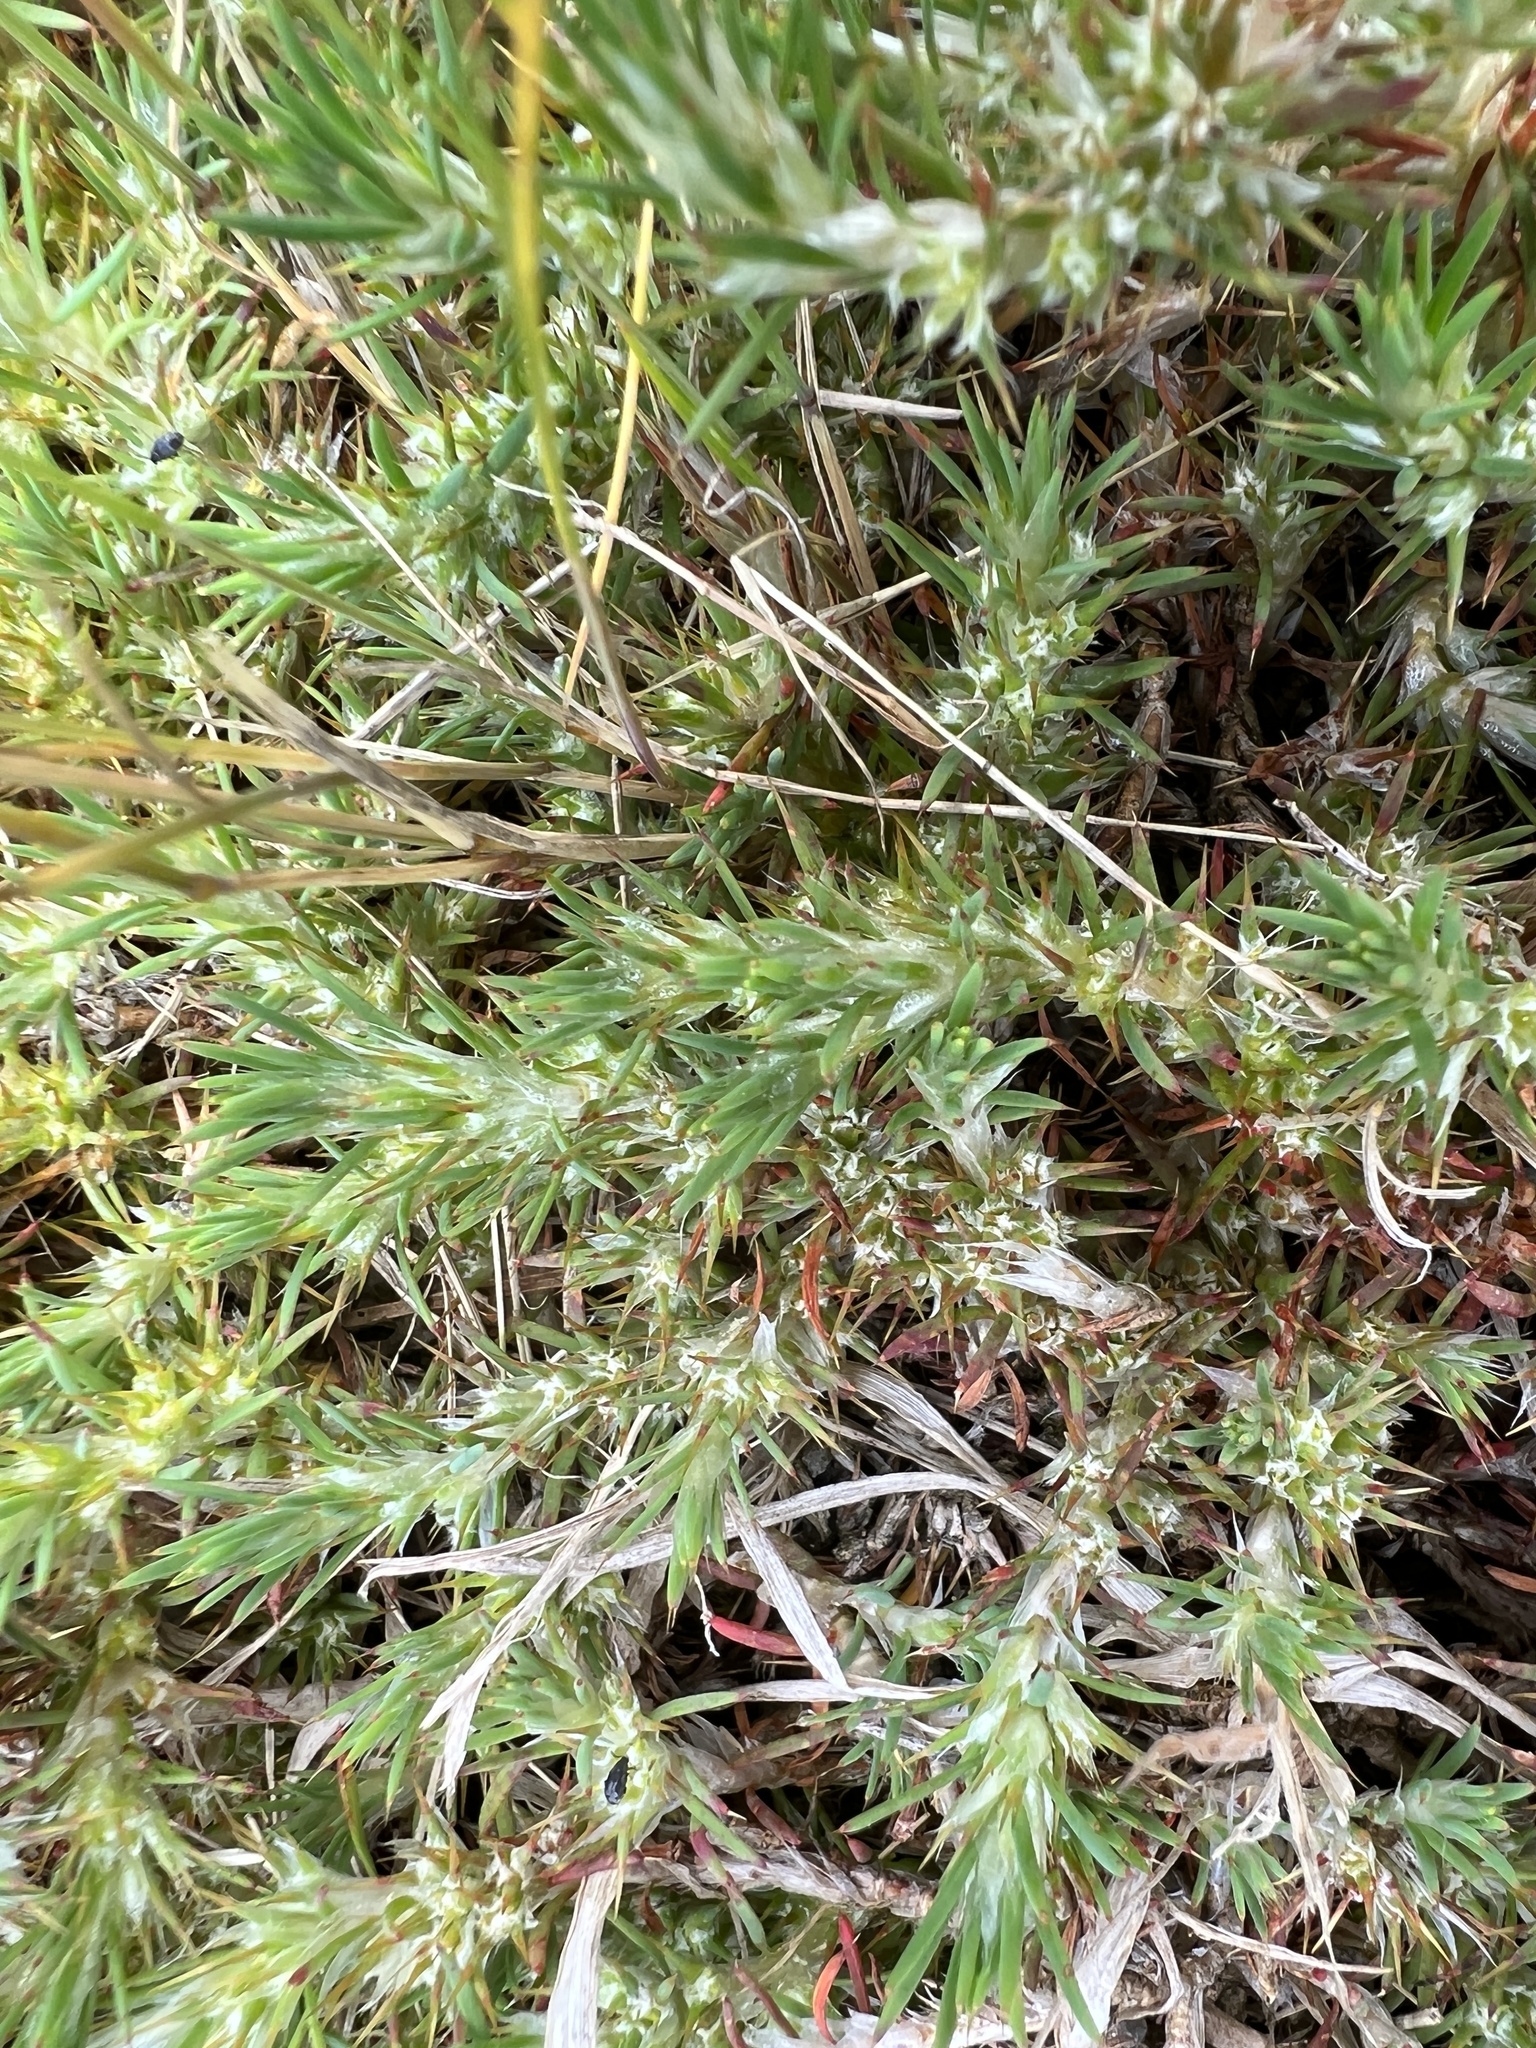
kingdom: Plantae
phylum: Tracheophyta
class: Magnoliopsida
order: Caryophyllales
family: Caryophyllaceae
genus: Cardionema
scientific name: Cardionema ramosissima
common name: Sandcarpet
